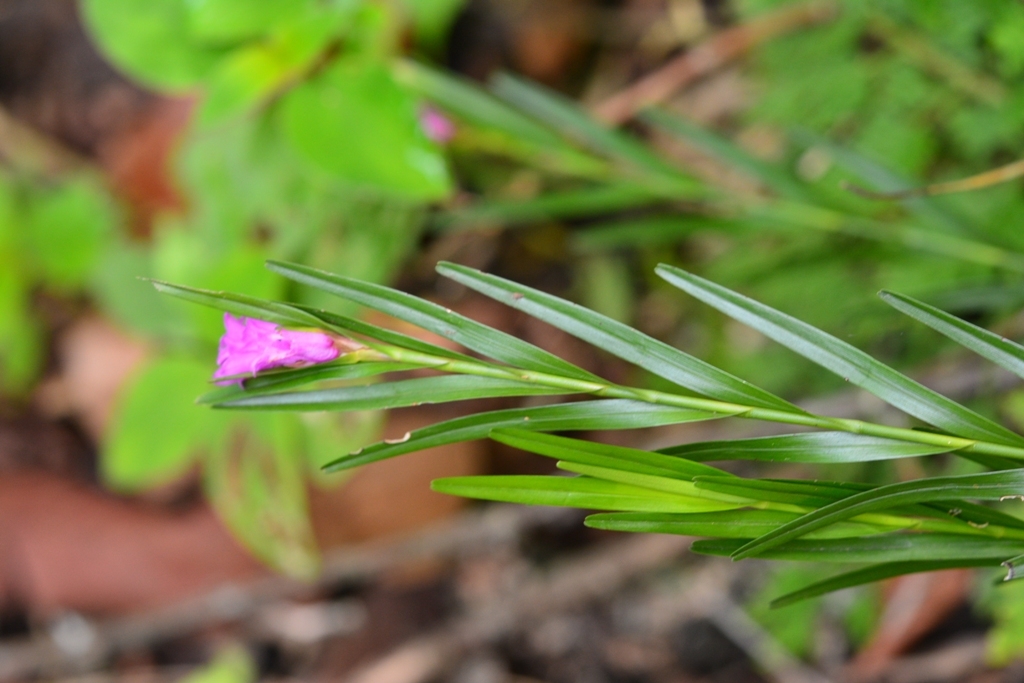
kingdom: Plantae
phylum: Tracheophyta
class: Liliopsida
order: Asparagales
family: Orchidaceae
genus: Isochilus
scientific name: Isochilus latibracteatus
